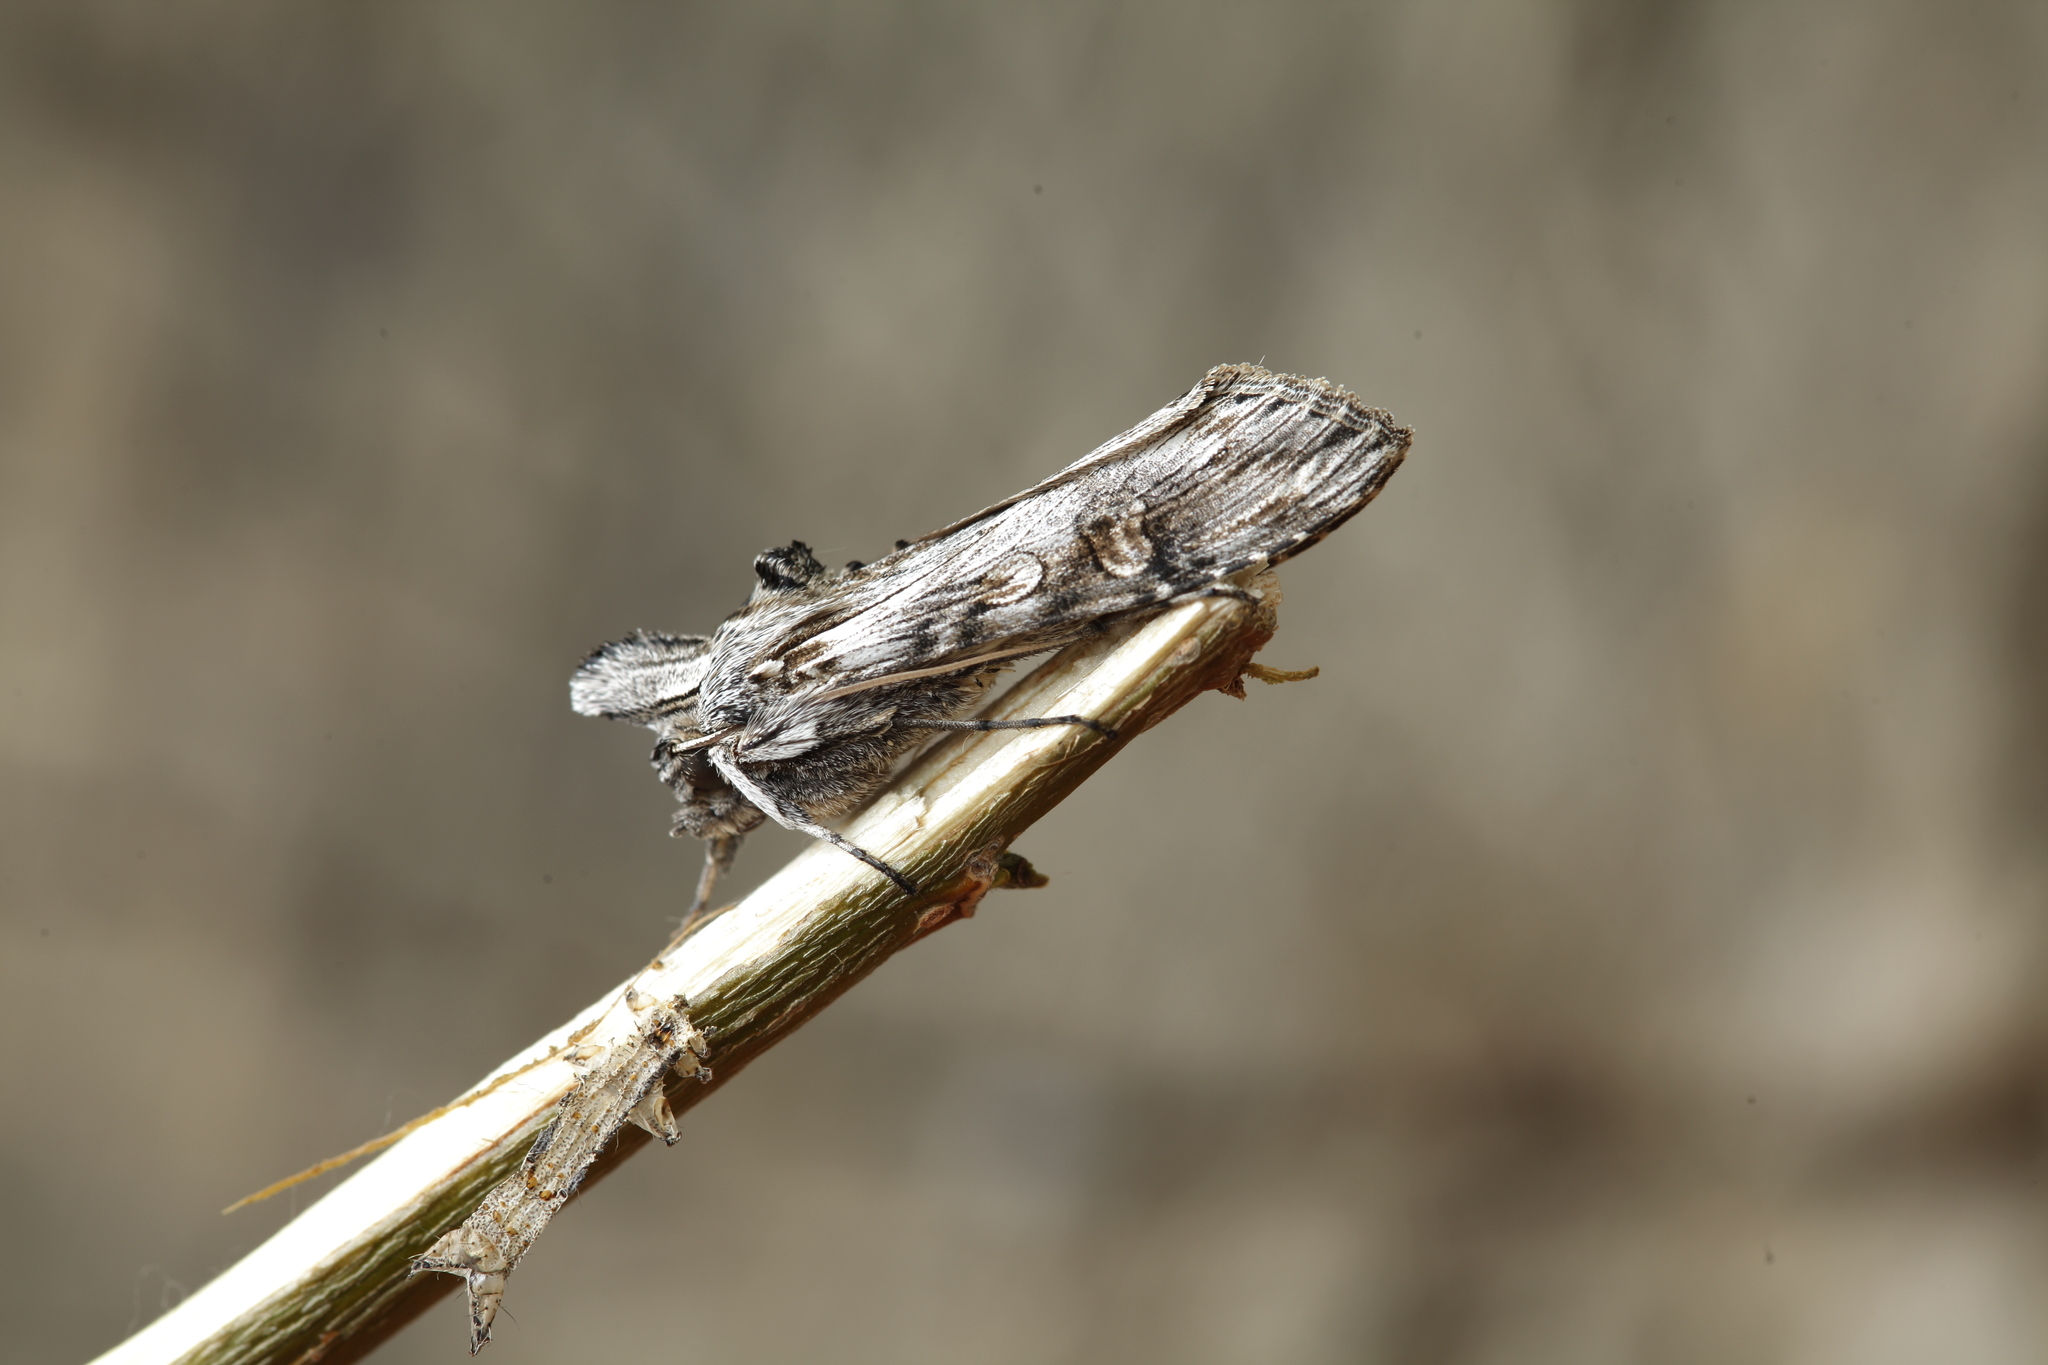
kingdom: Animalia
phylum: Arthropoda
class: Insecta
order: Lepidoptera
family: Noctuidae
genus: Cucullia
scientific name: Cucullia santonici
